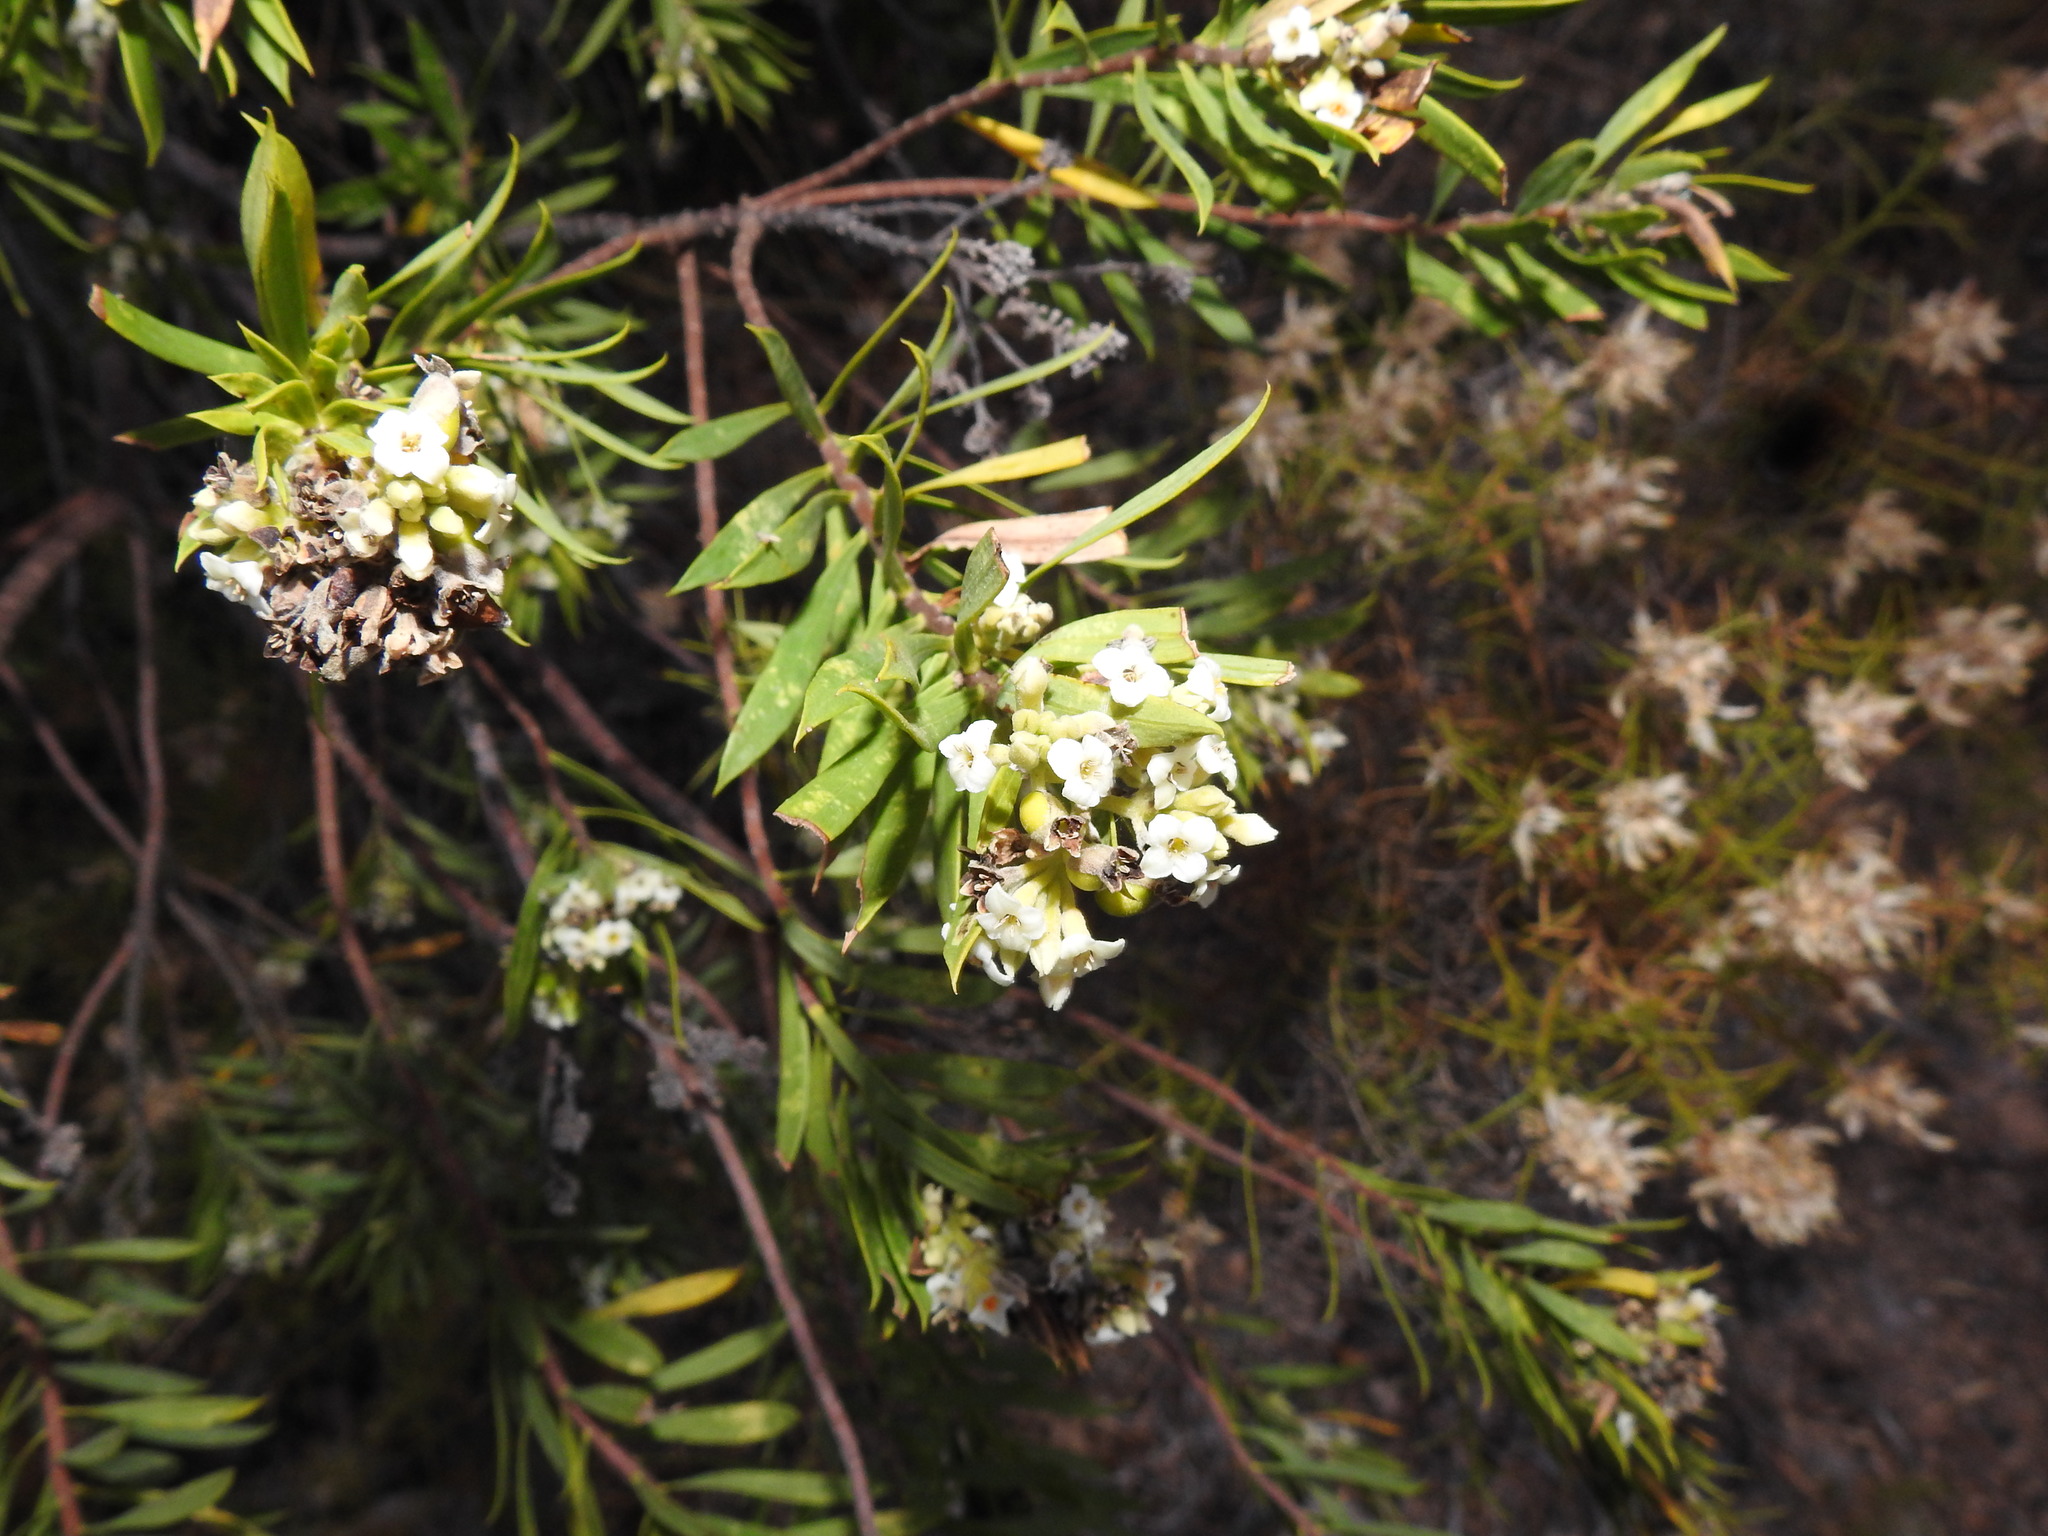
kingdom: Plantae
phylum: Tracheophyta
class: Magnoliopsida
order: Malvales
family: Thymelaeaceae
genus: Daphne
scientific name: Daphne gnidium
